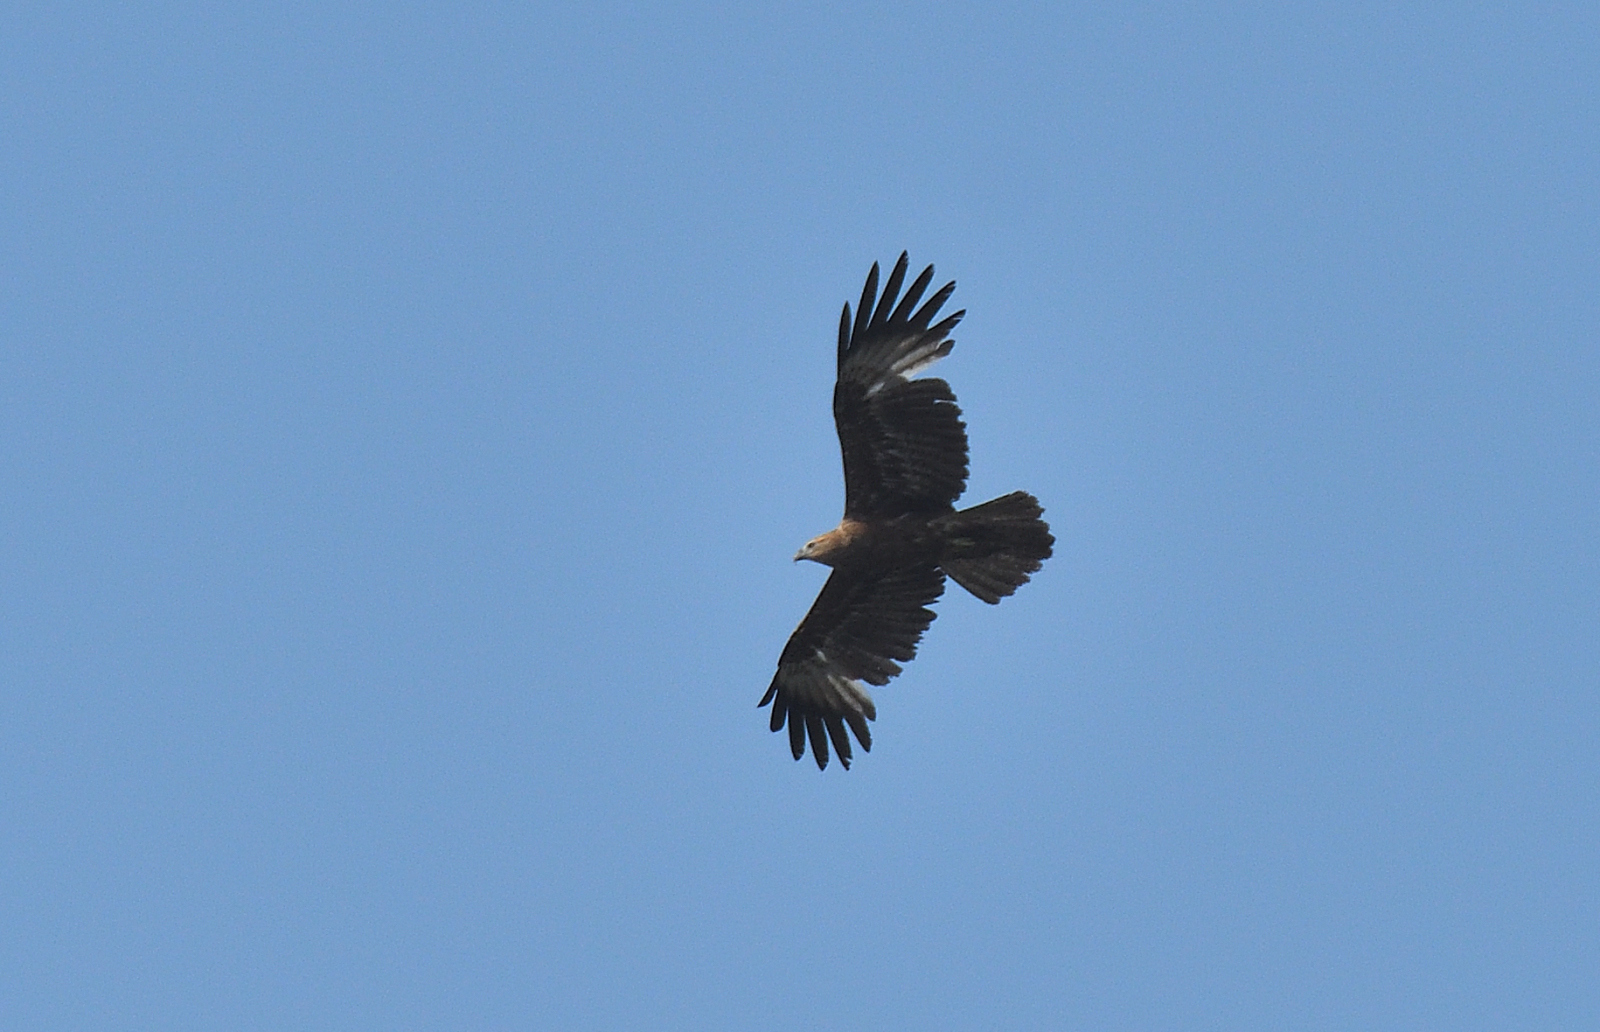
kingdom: Animalia
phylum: Chordata
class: Aves
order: Accipitriformes
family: Accipitridae
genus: Circus
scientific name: Circus aeruginosus
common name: Western marsh harrier
